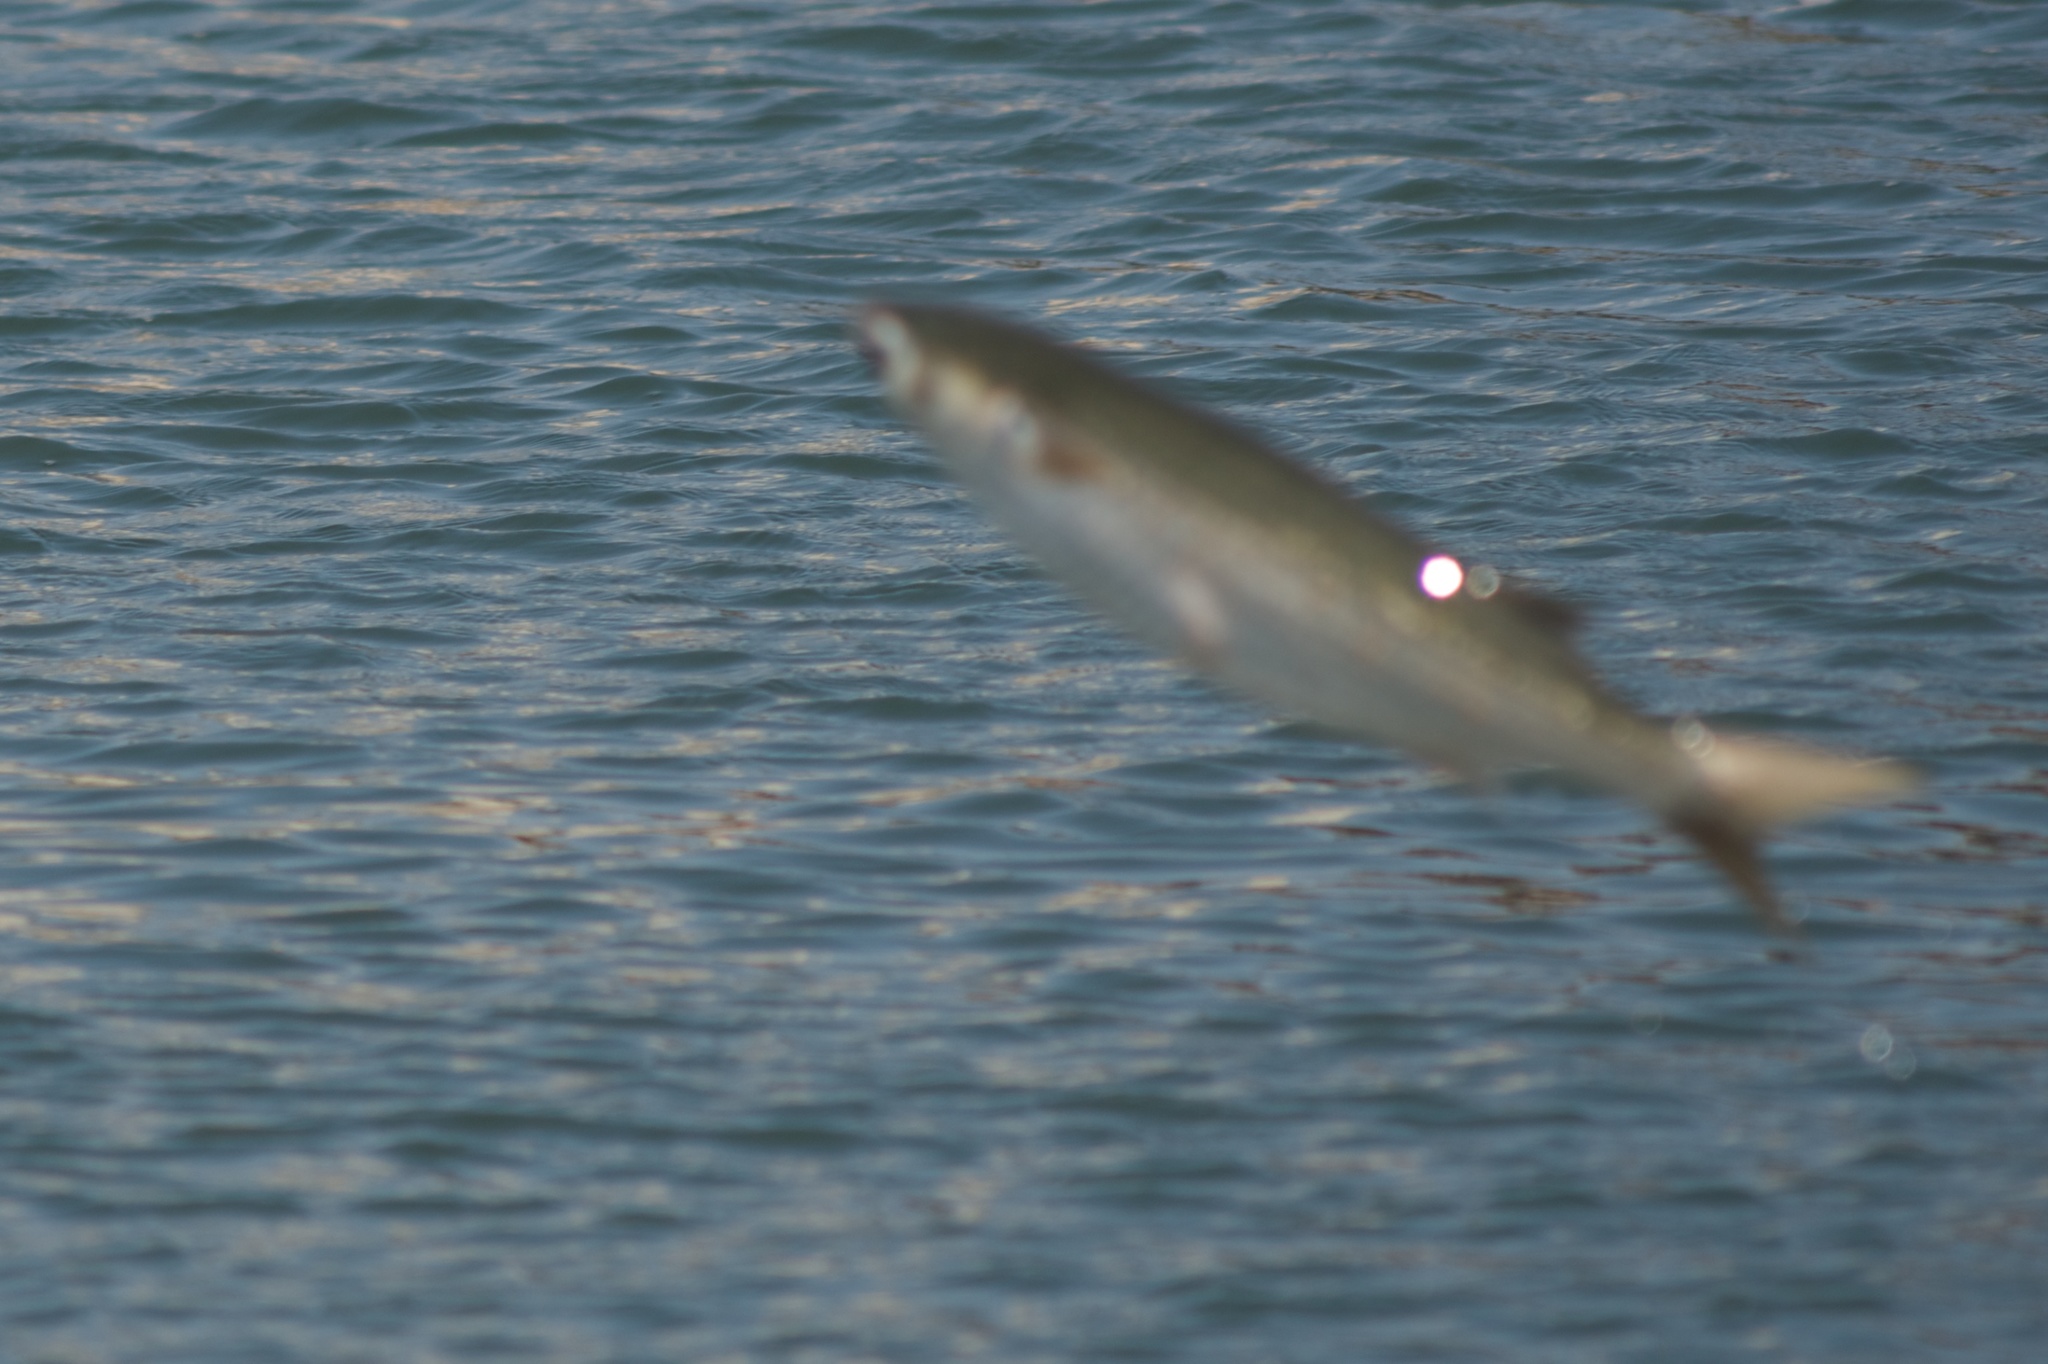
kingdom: Animalia
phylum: Chordata
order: Mugiliformes
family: Mugilidae
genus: Mugil
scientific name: Mugil cephalus
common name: Grey mullet
